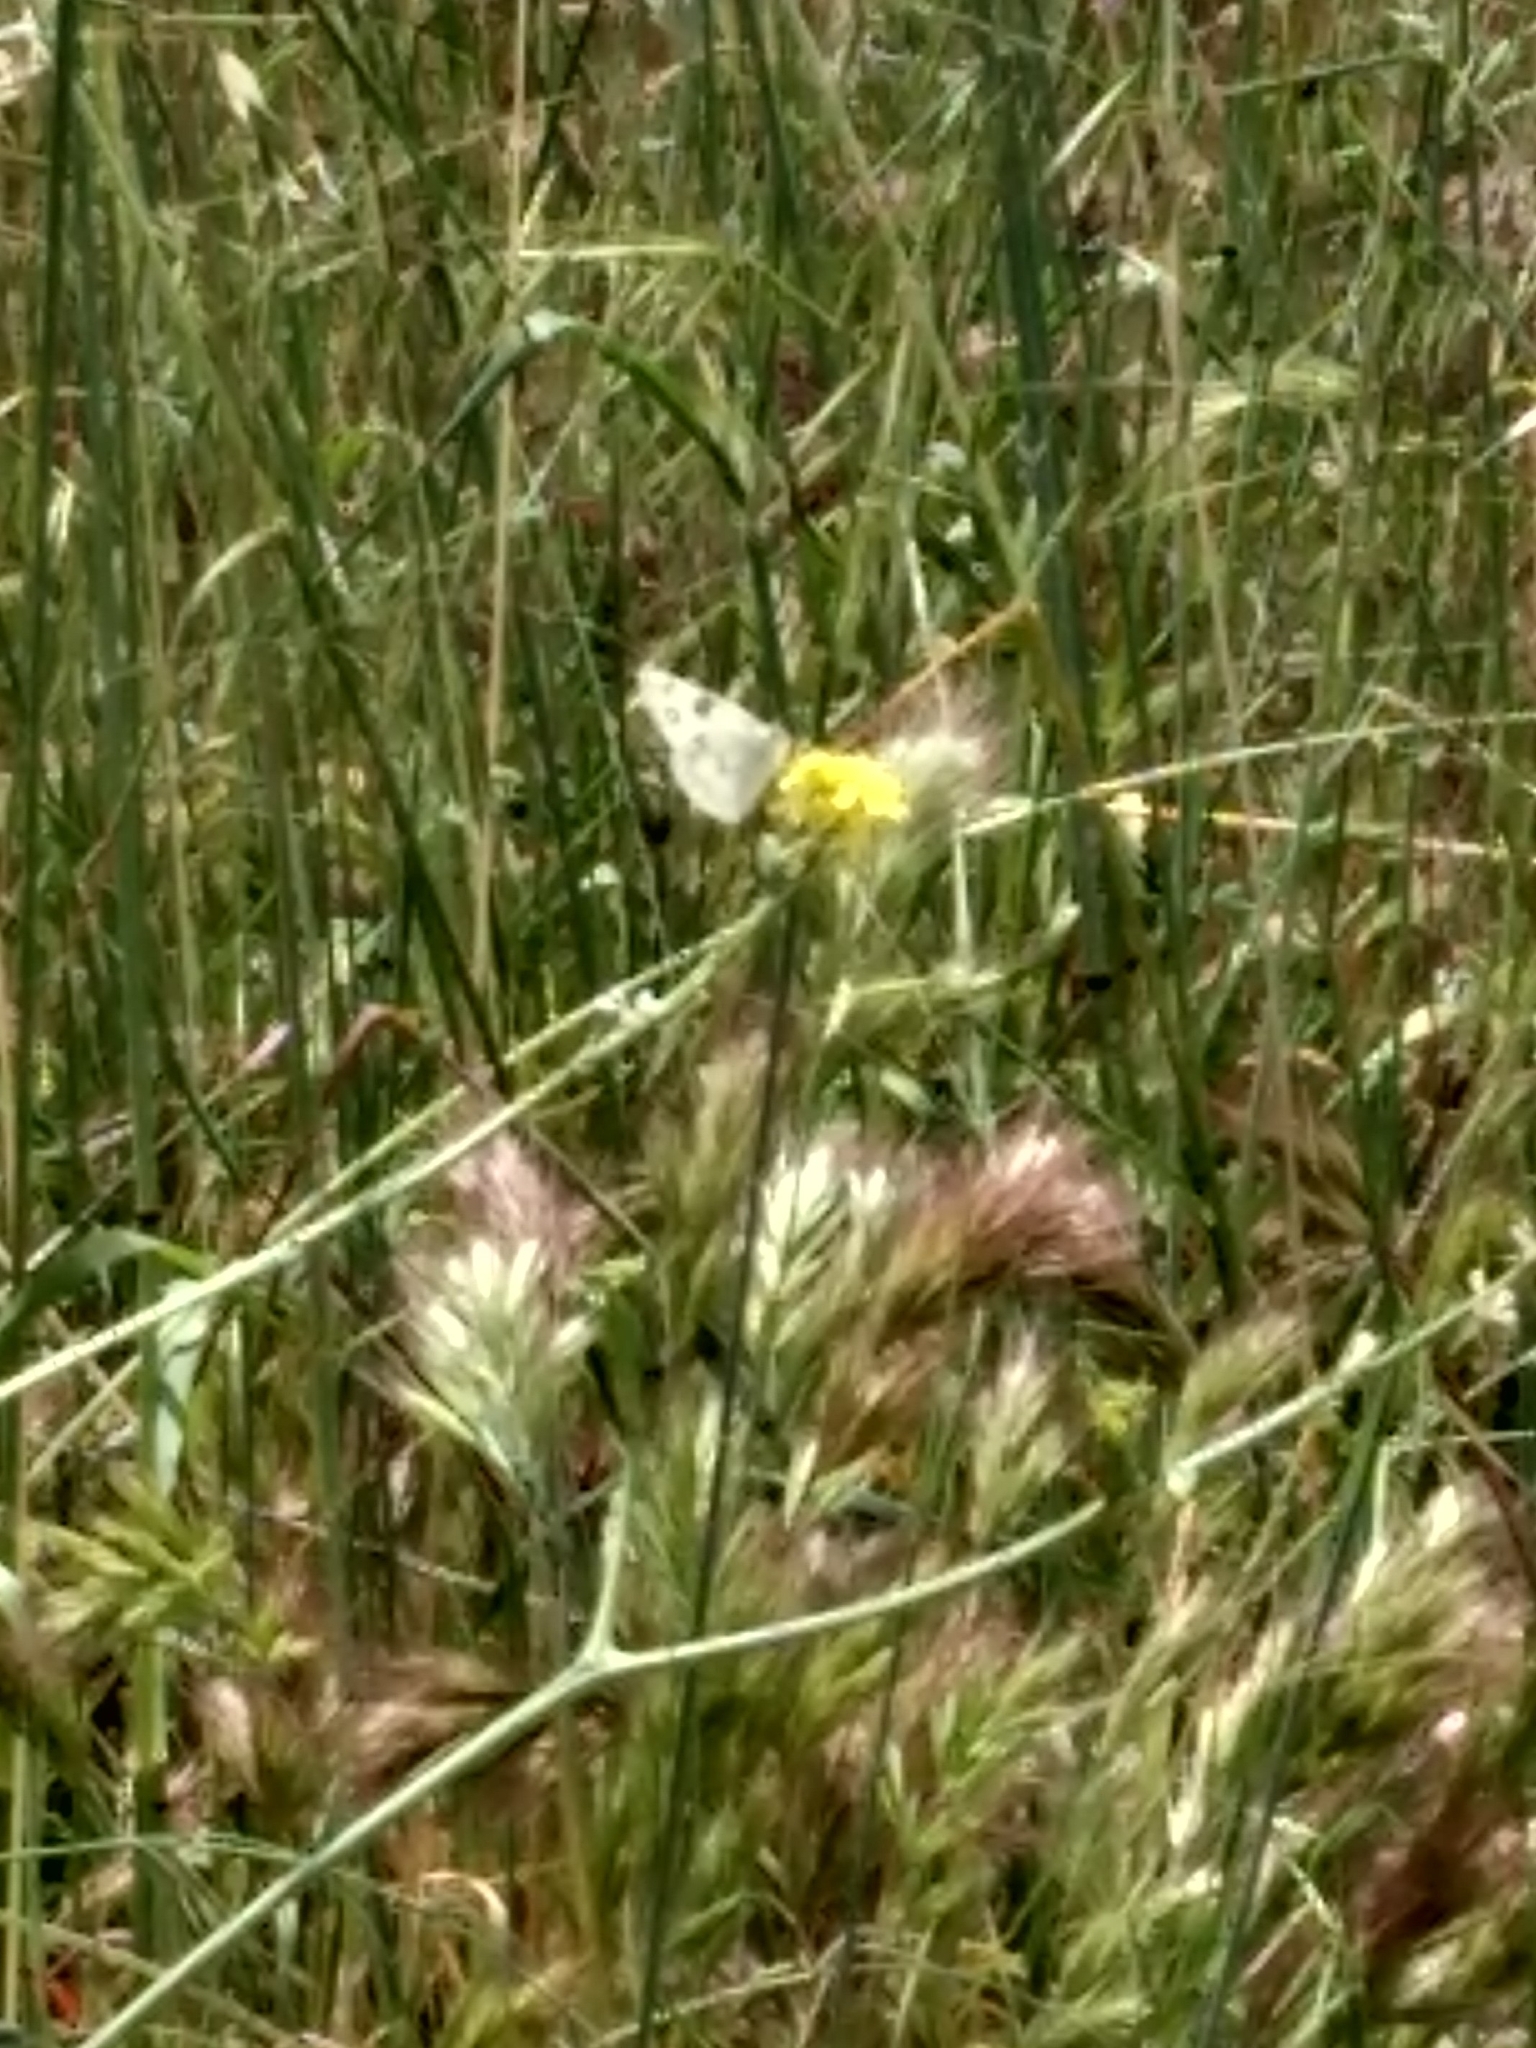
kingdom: Animalia
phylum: Arthropoda
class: Insecta
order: Lepidoptera
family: Pieridae
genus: Pontia
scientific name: Pontia protodice
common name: Checkered white
